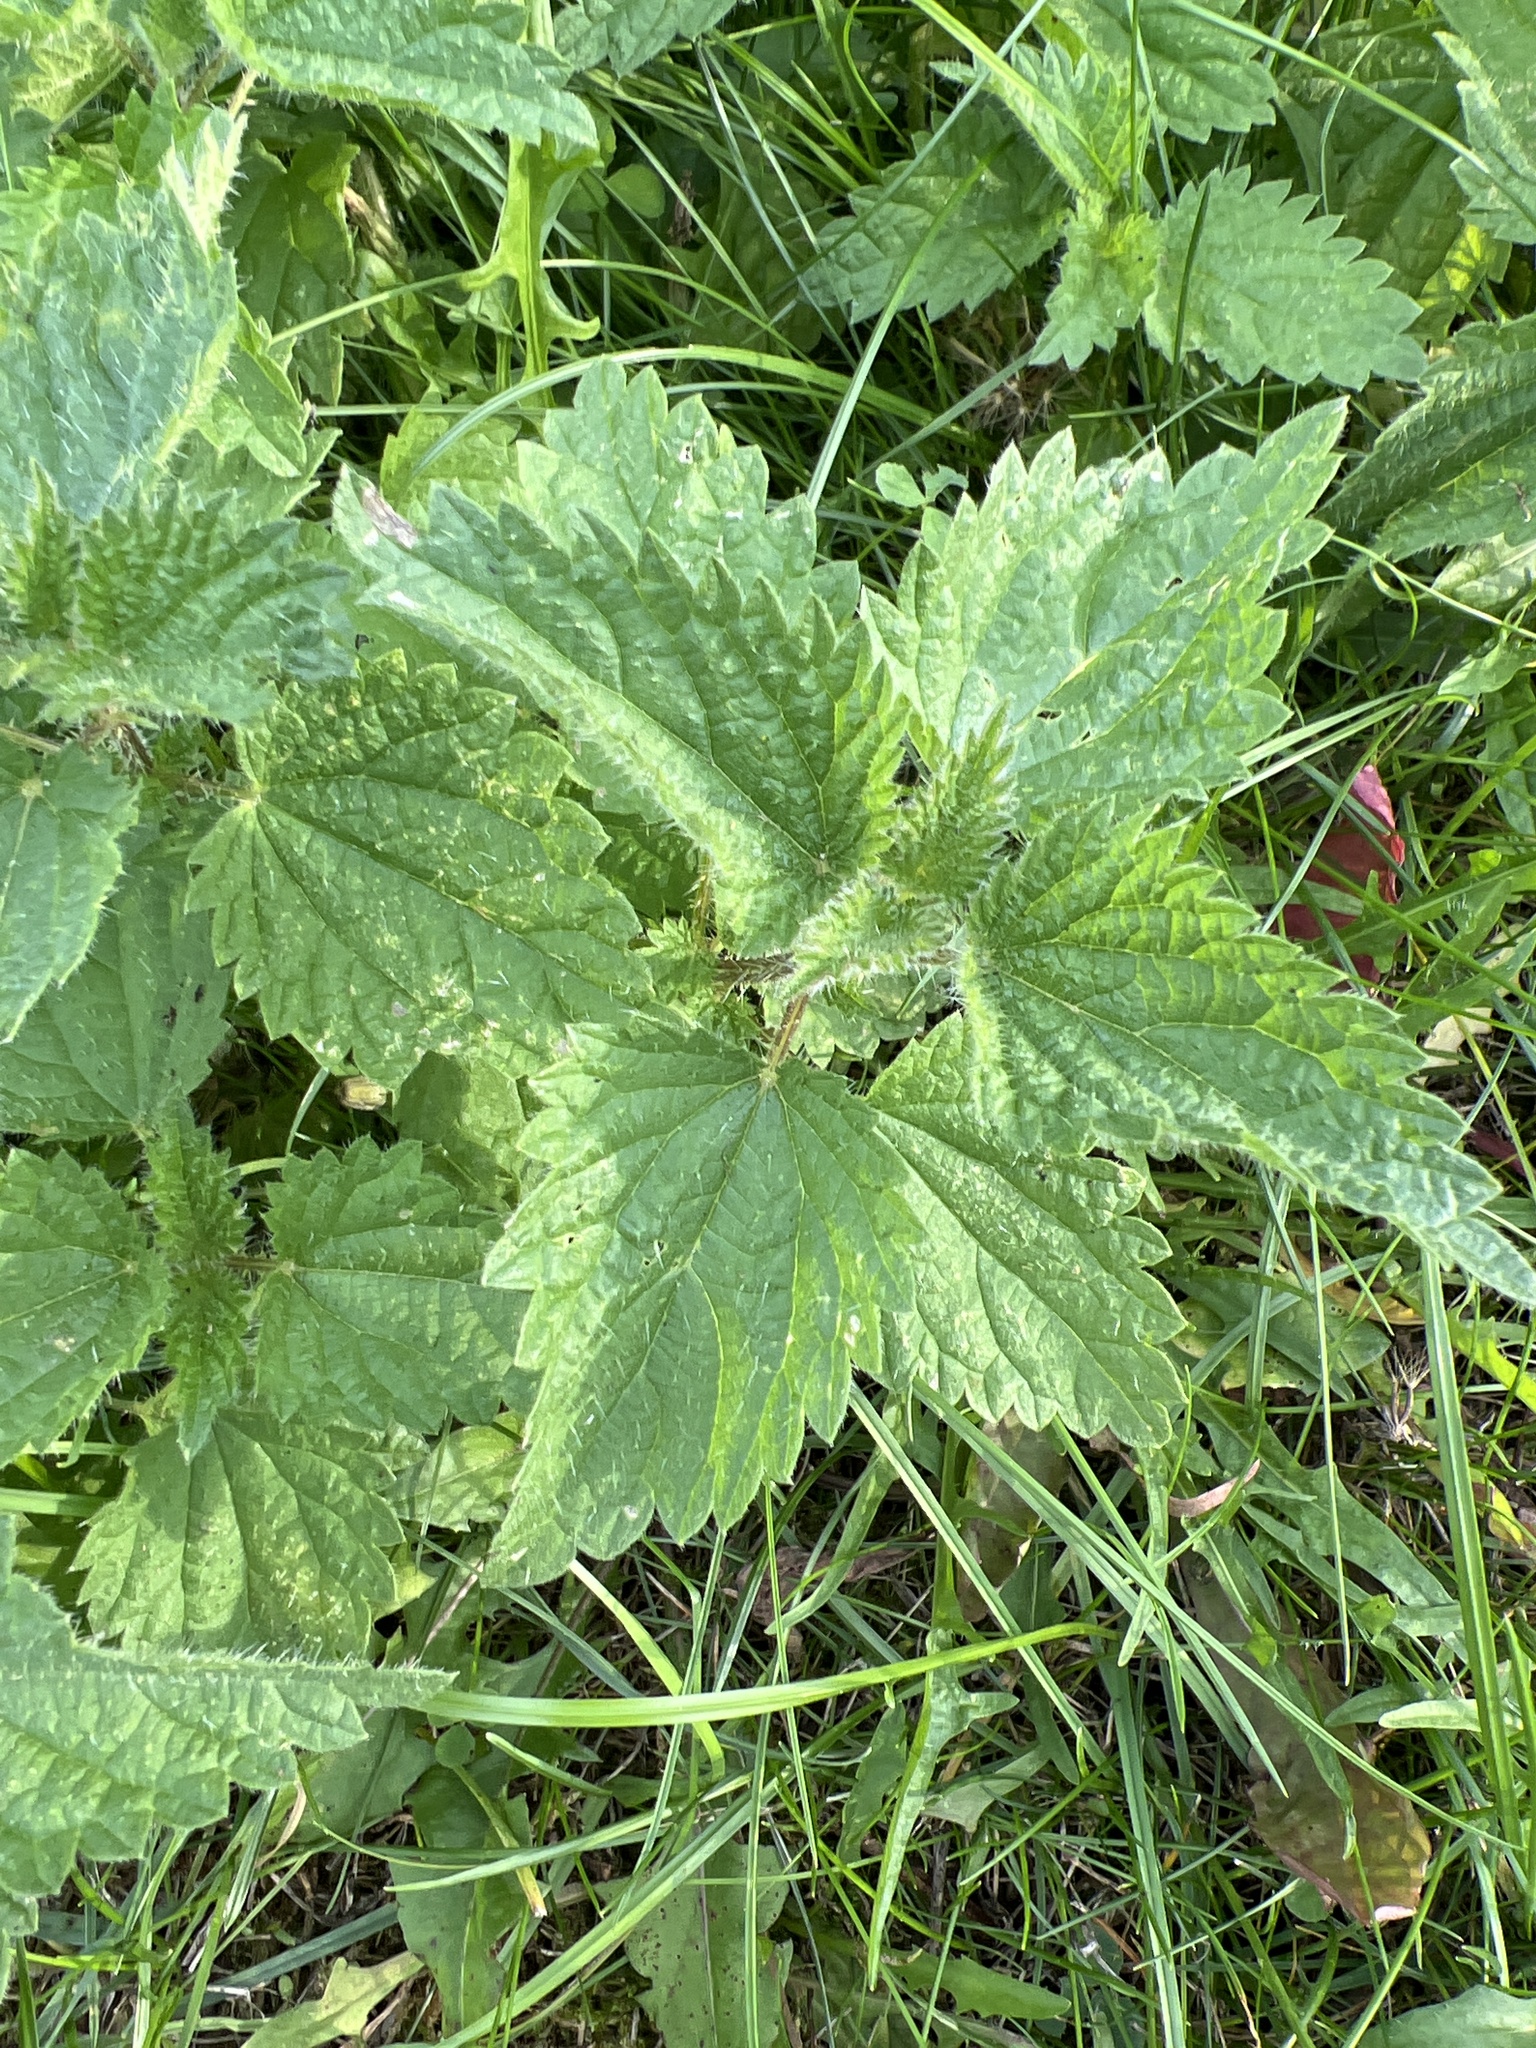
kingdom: Plantae
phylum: Tracheophyta
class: Magnoliopsida
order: Rosales
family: Urticaceae
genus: Urtica
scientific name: Urtica dioica
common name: Common nettle
